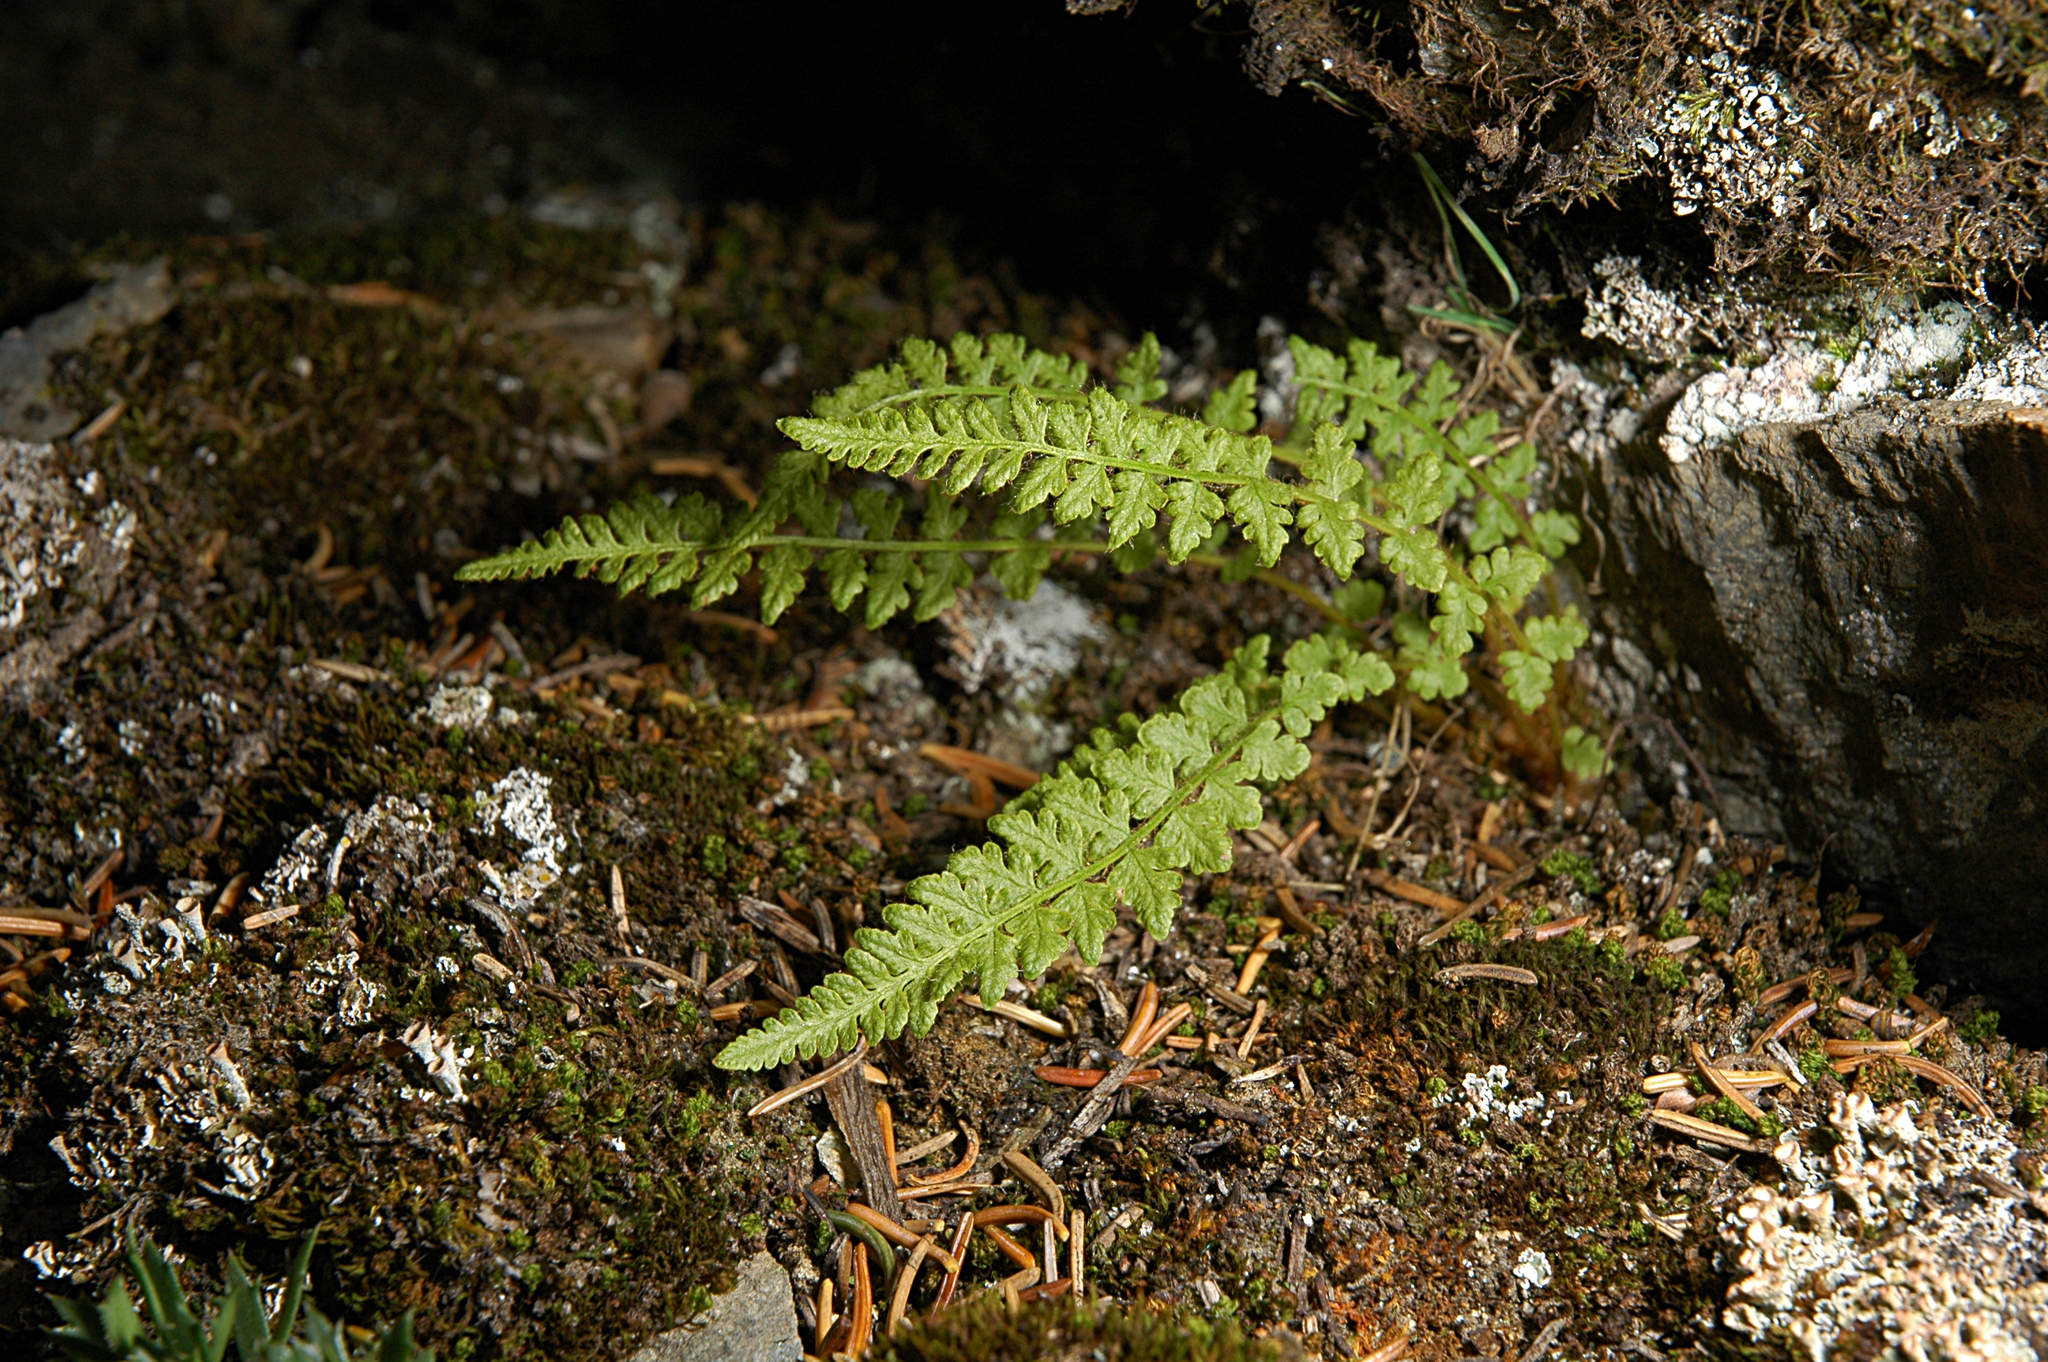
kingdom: Plantae
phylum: Tracheophyta
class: Polypodiopsida
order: Polypodiales
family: Woodsiaceae
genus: Woodsia
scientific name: Woodsia ilvensis
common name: Fragrant woodsia
